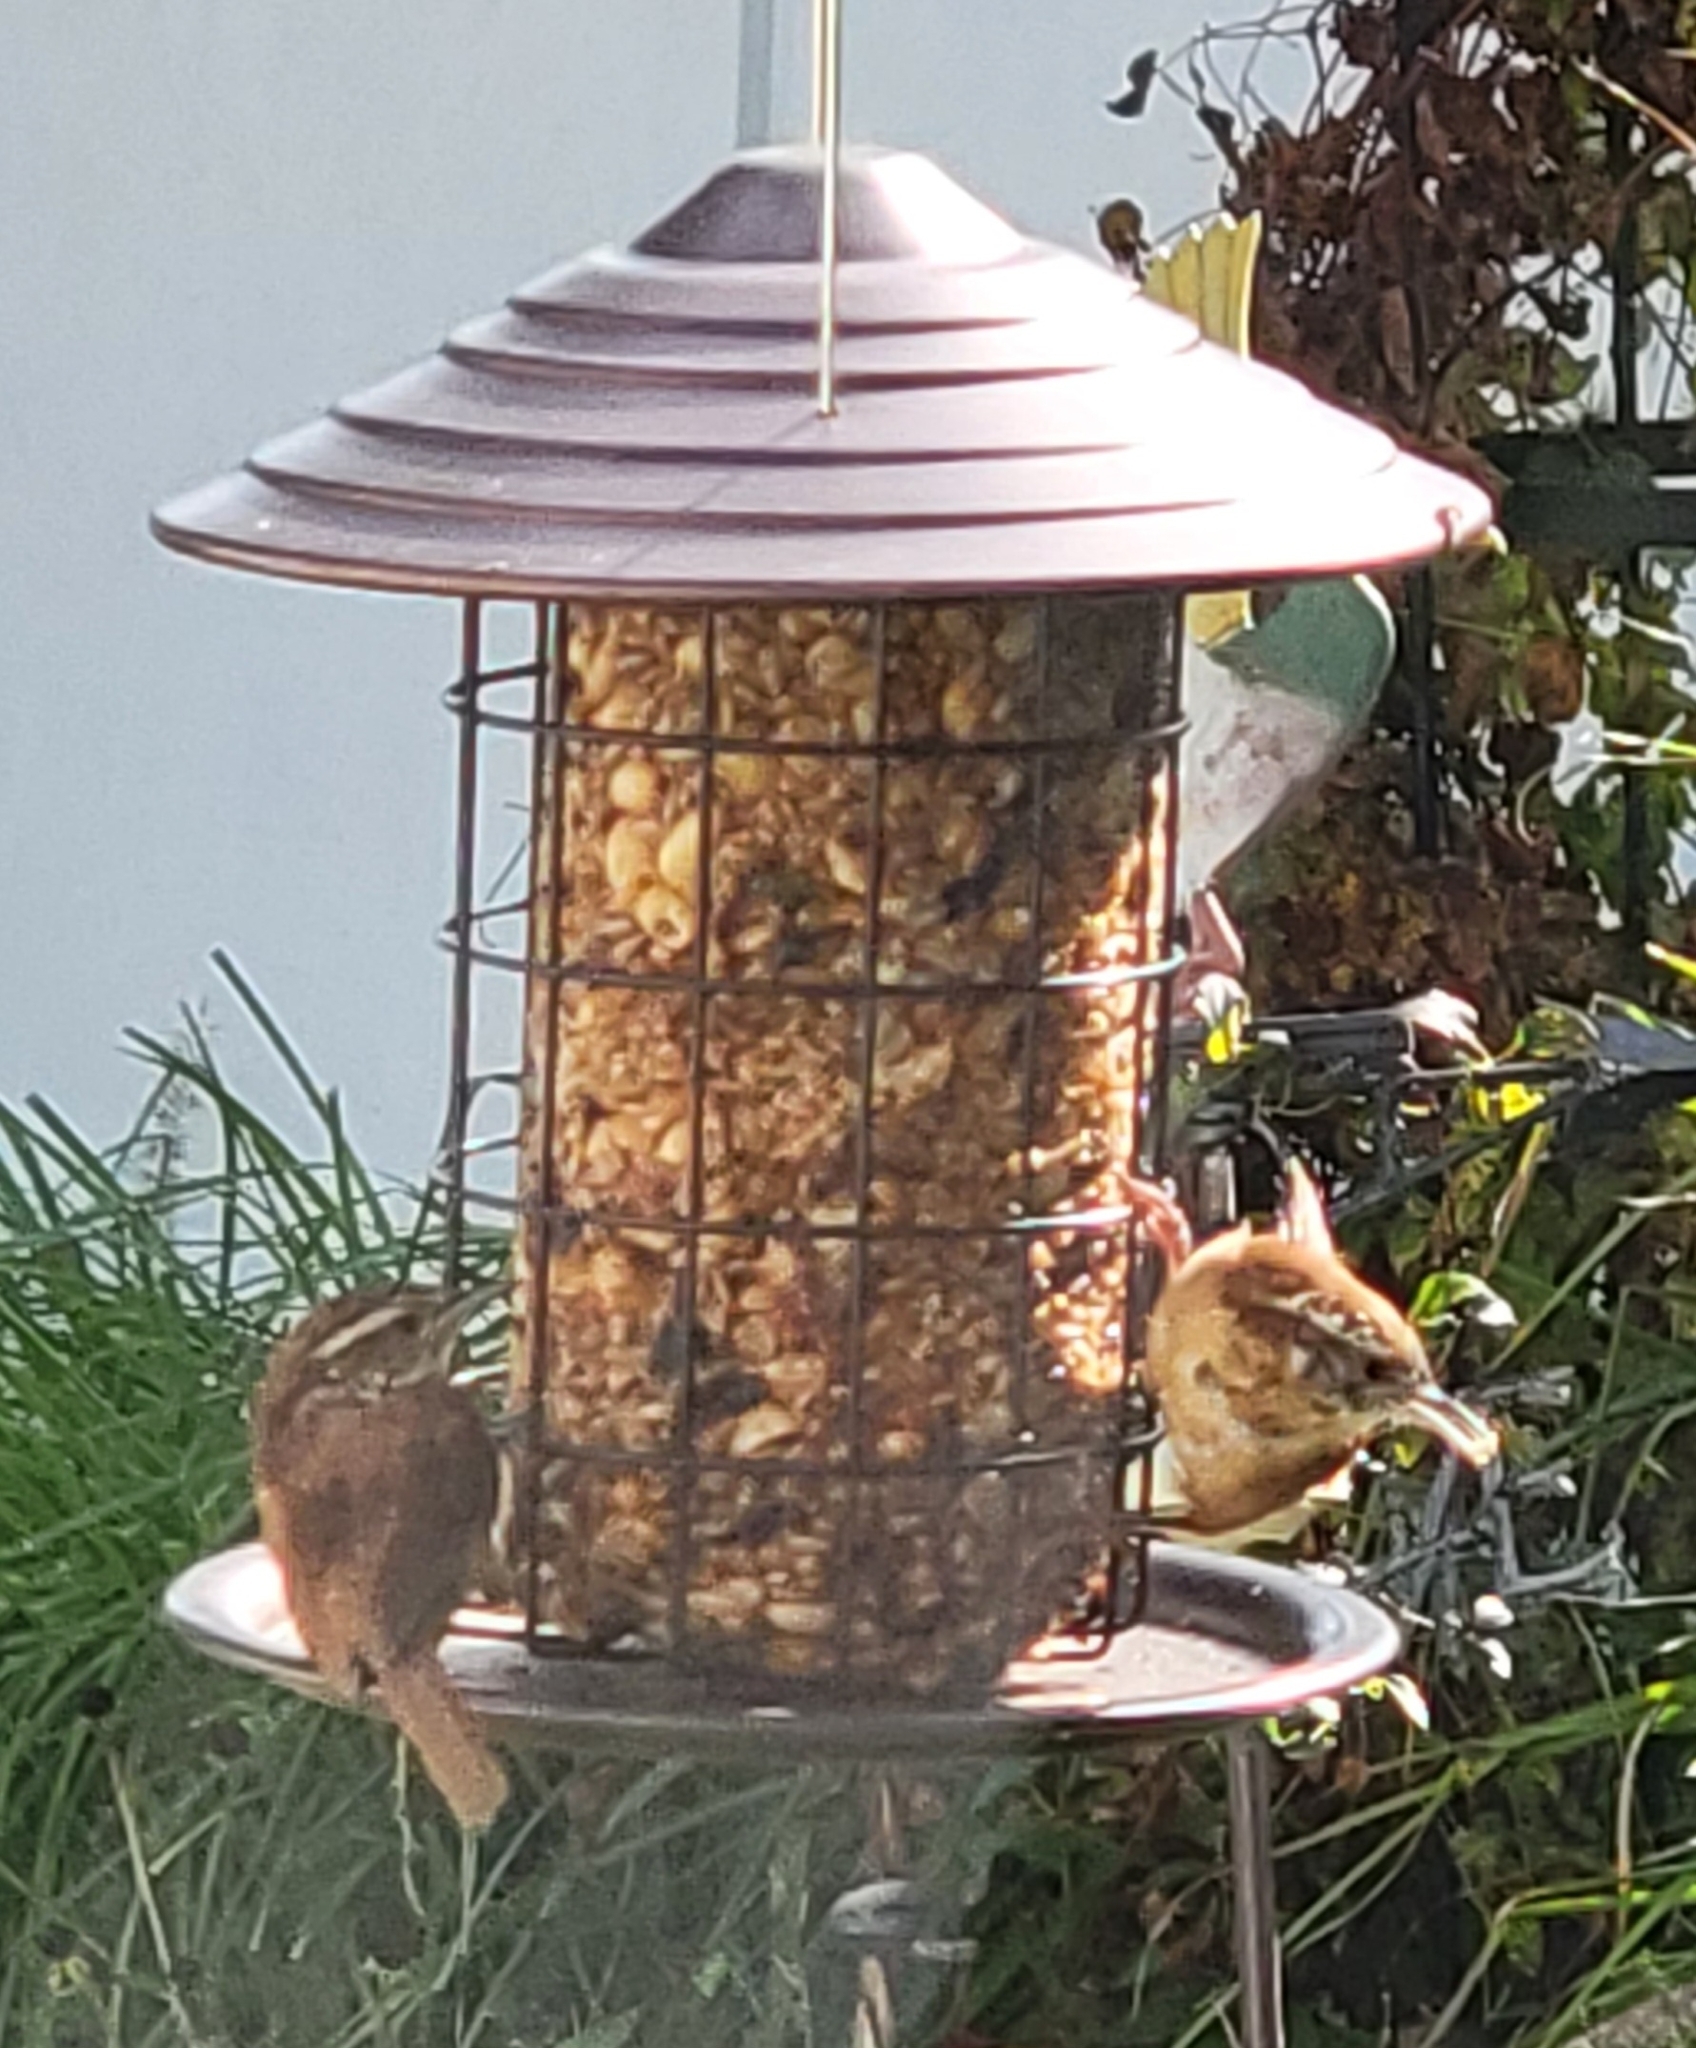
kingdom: Animalia
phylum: Chordata
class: Aves
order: Passeriformes
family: Troglodytidae
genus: Thryothorus
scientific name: Thryothorus ludovicianus
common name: Carolina wren
